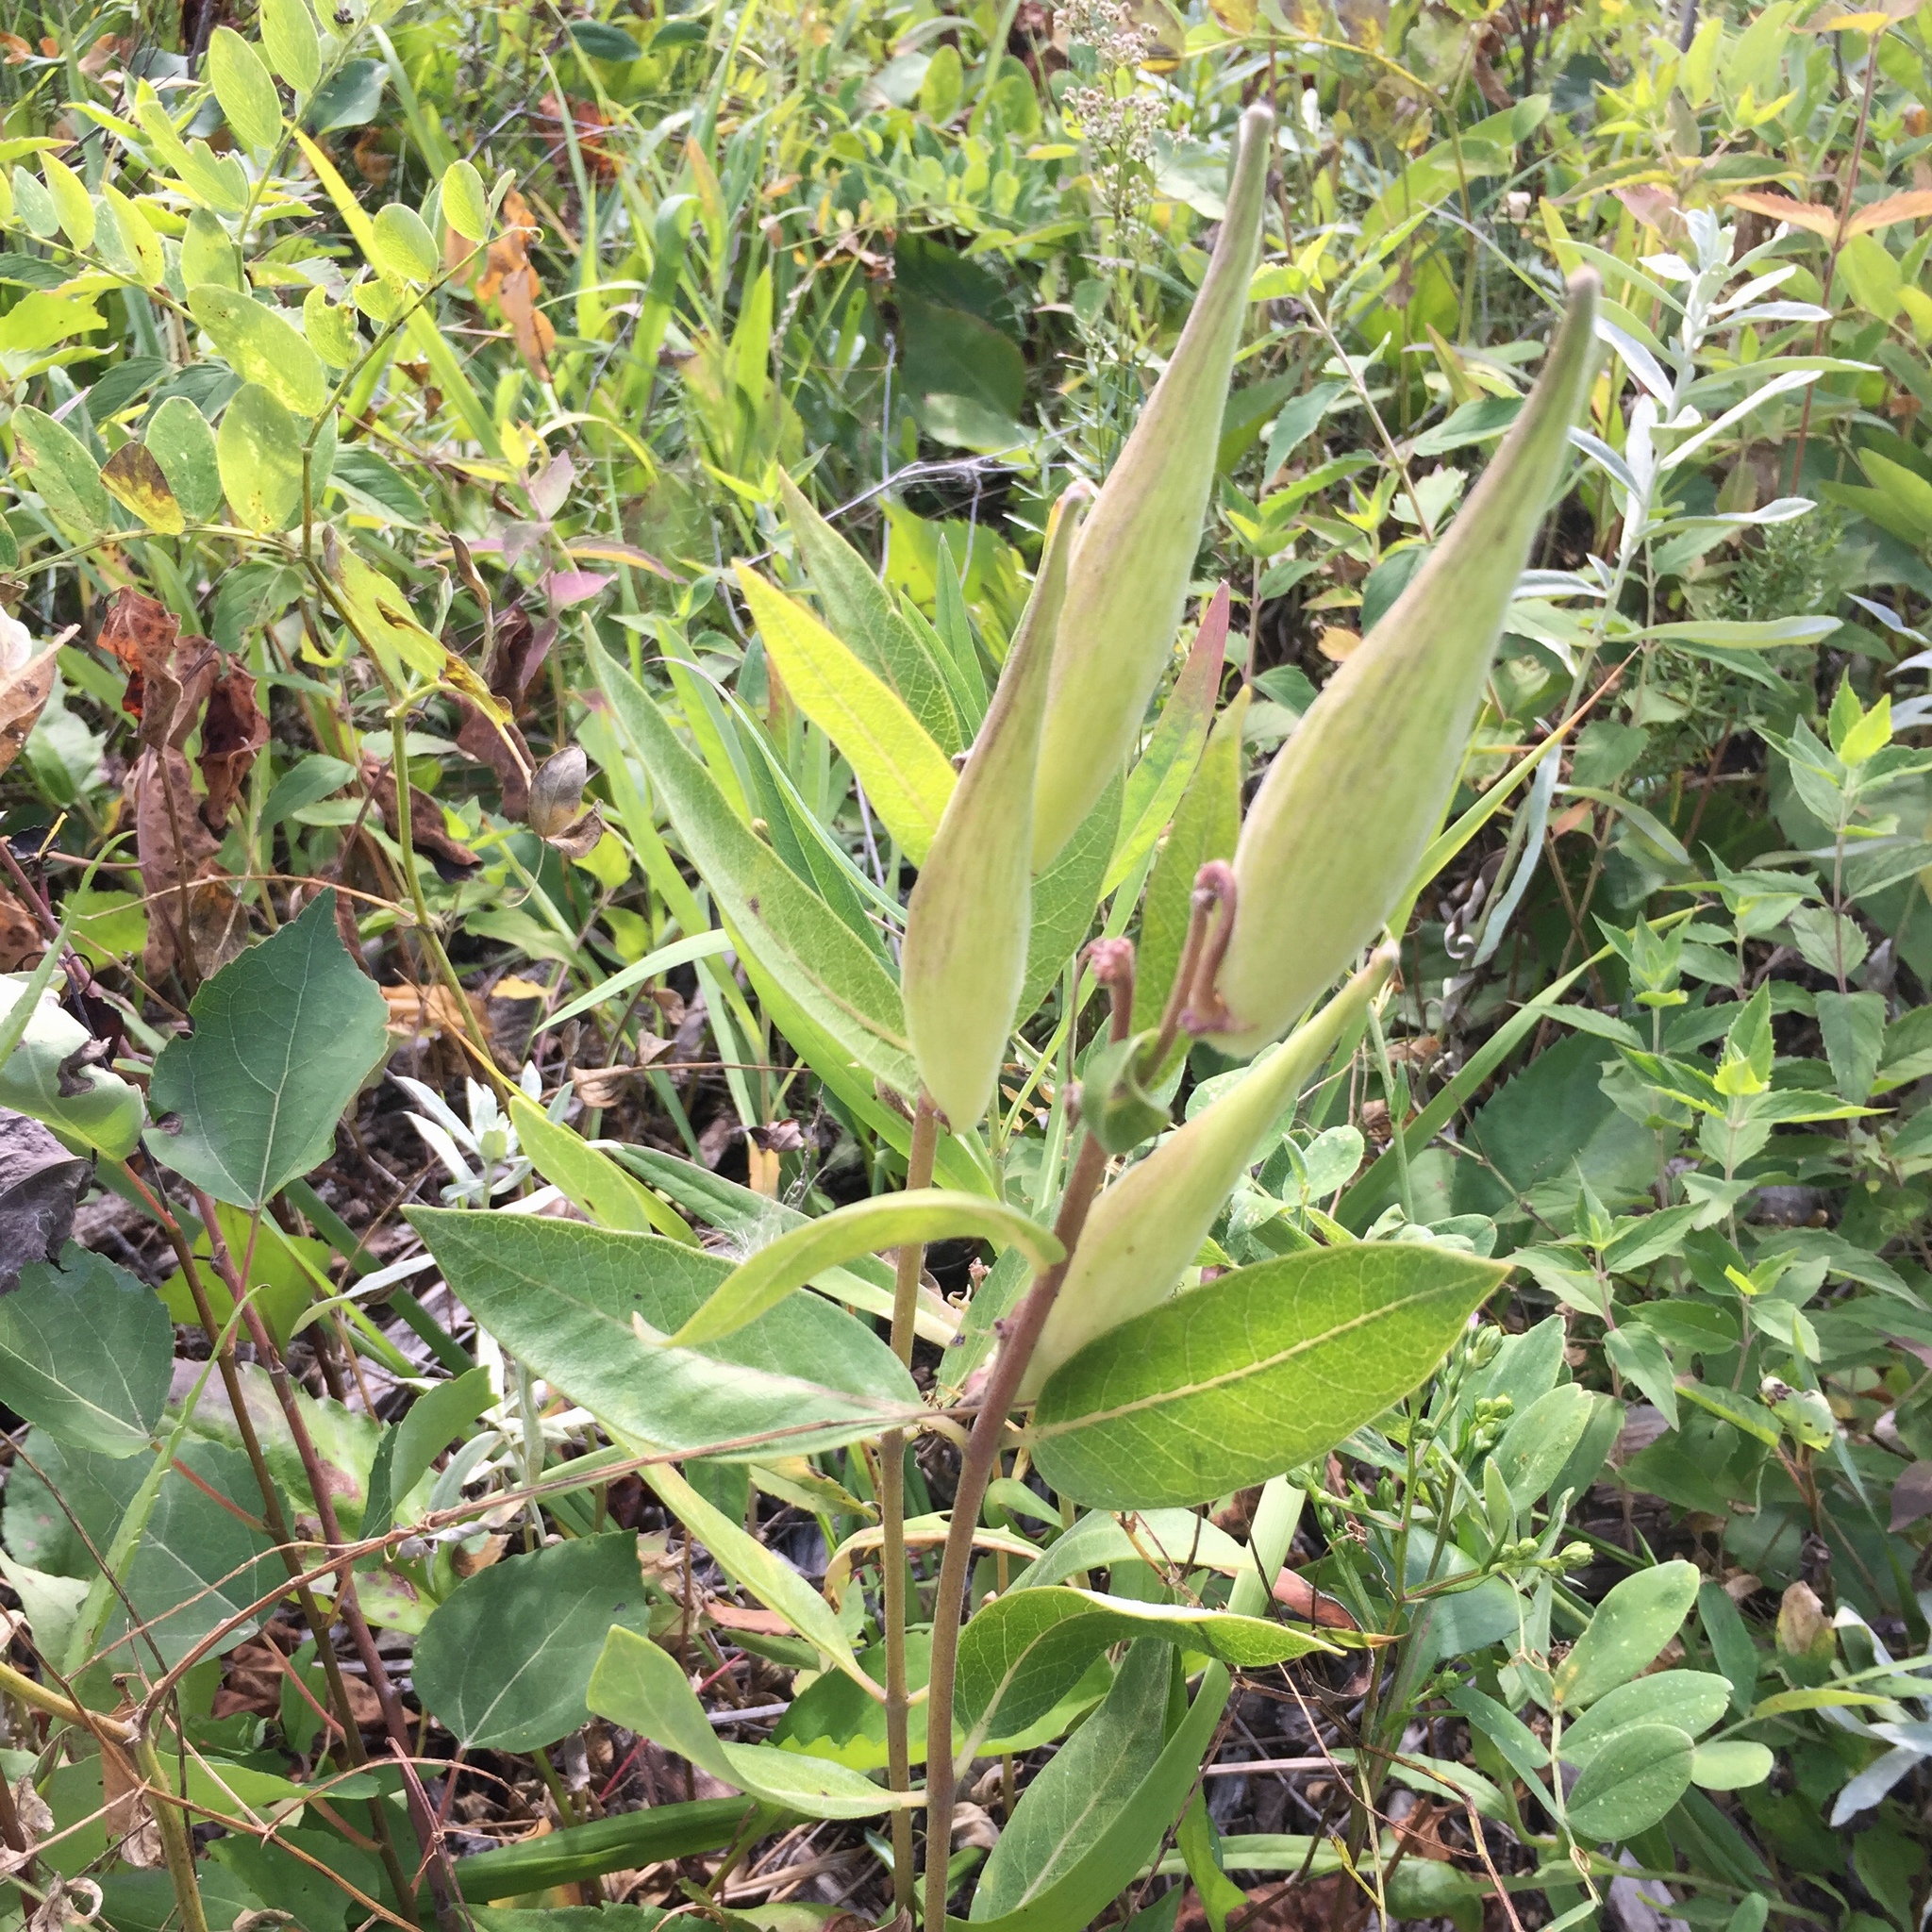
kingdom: Plantae
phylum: Tracheophyta
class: Magnoliopsida
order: Gentianales
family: Apocynaceae
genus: Asclepias
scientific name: Asclepias ovalifolia
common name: Dwarf milkweed
